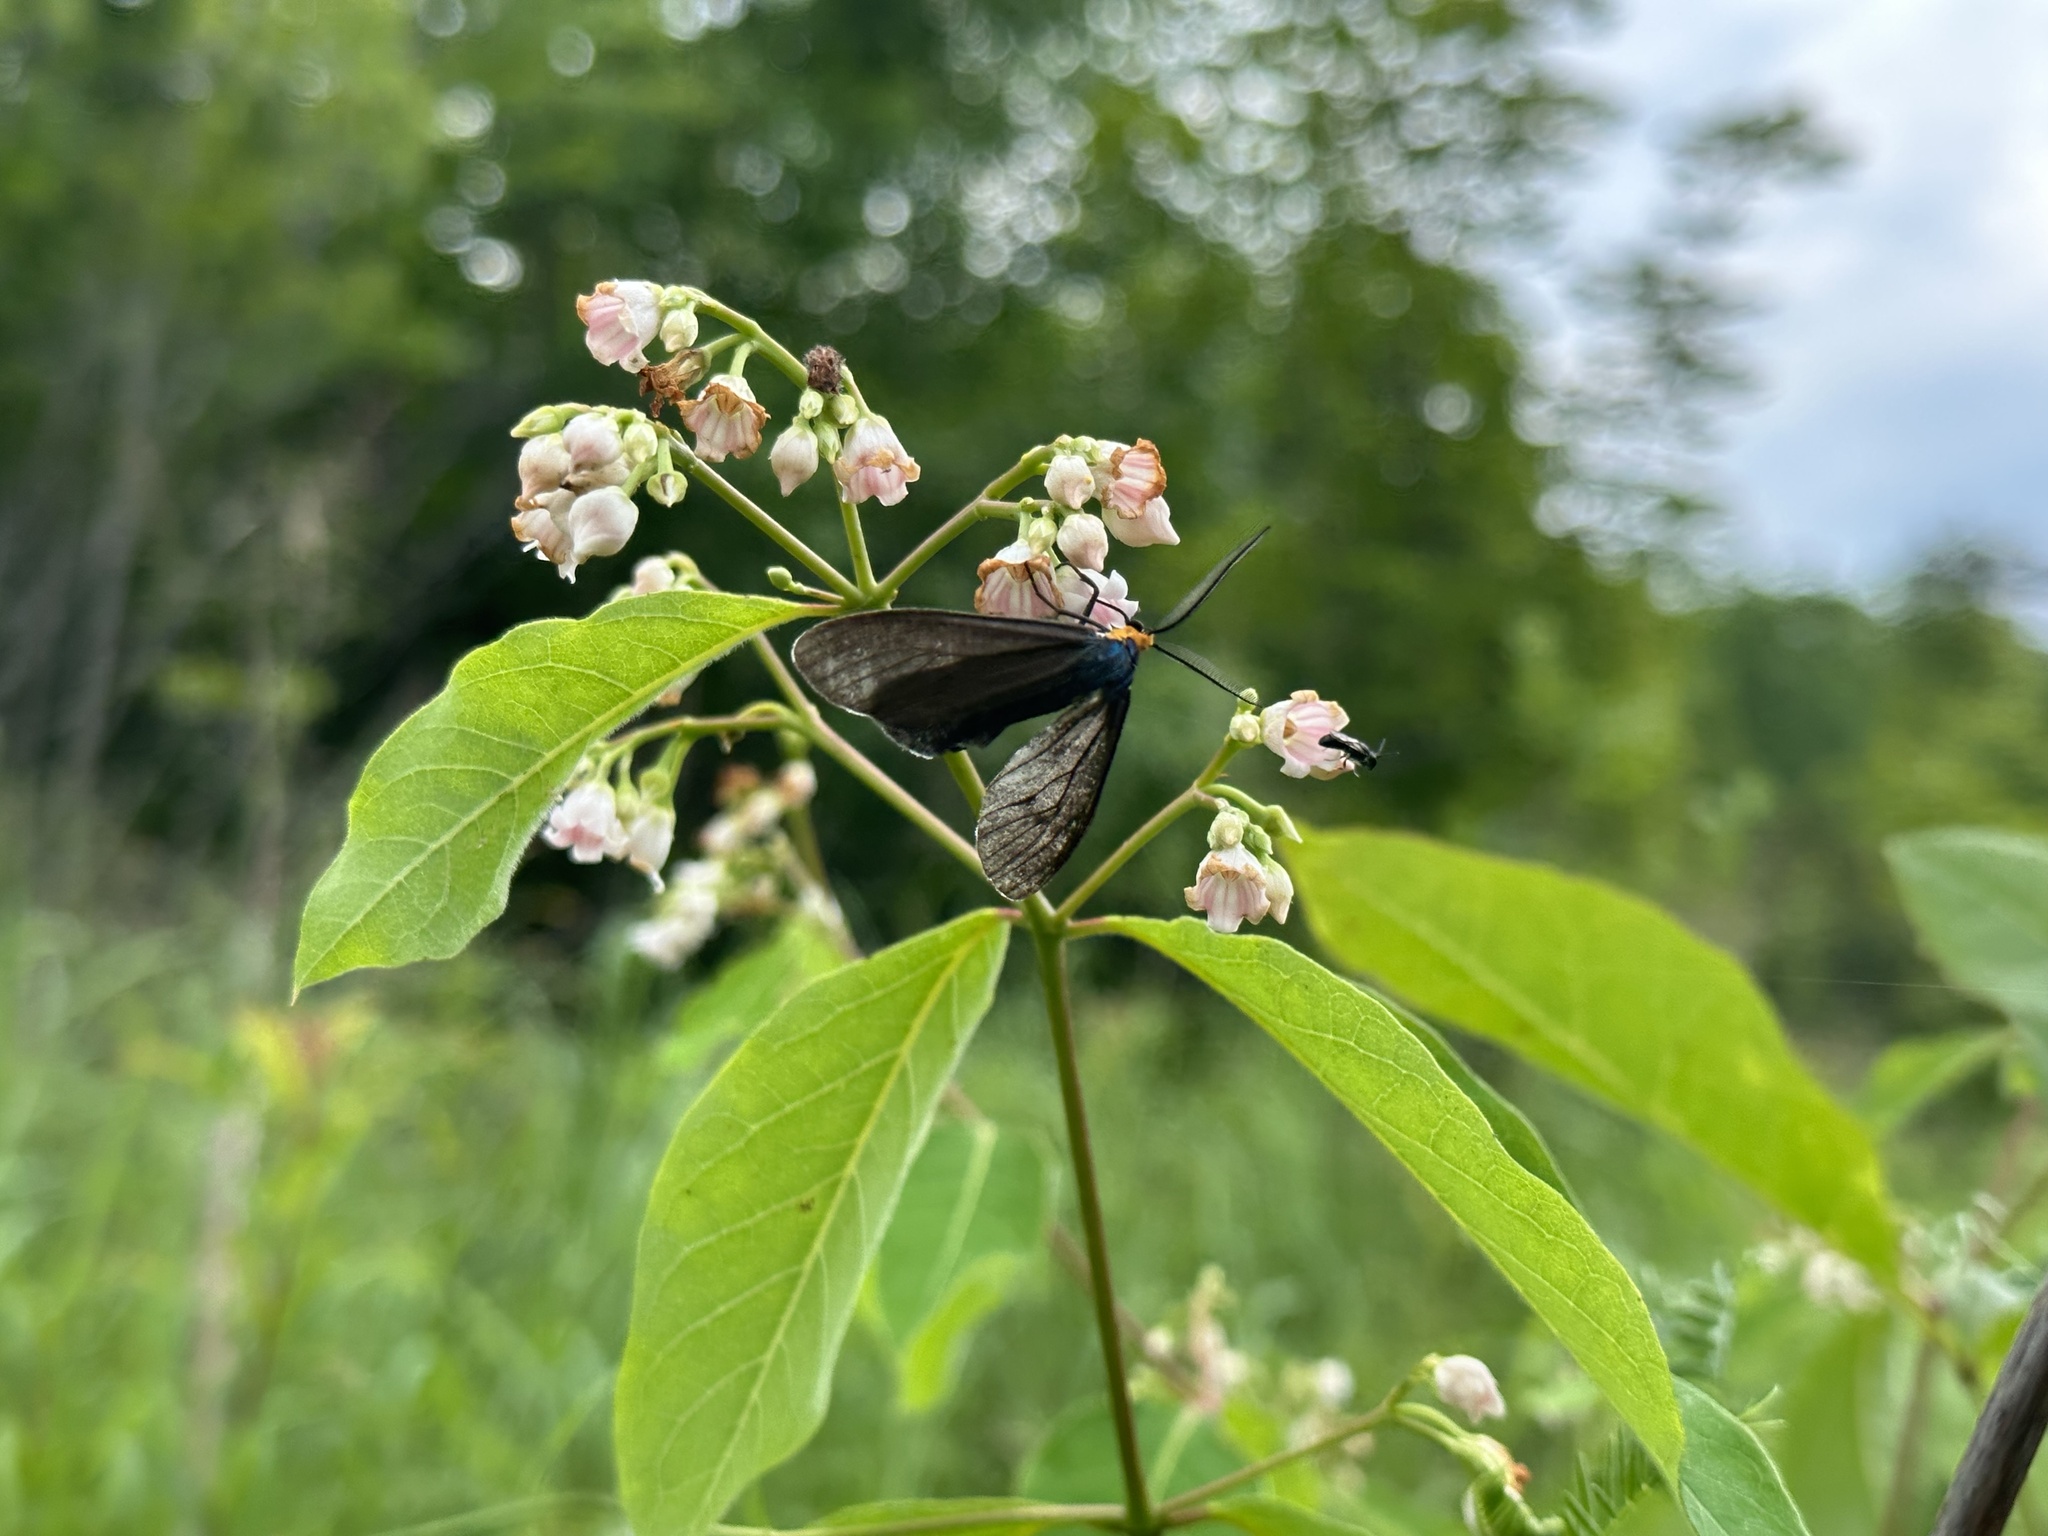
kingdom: Animalia
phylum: Arthropoda
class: Insecta
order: Lepidoptera
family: Erebidae
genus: Ctenucha
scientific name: Ctenucha virginica
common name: Virginia ctenucha moth
